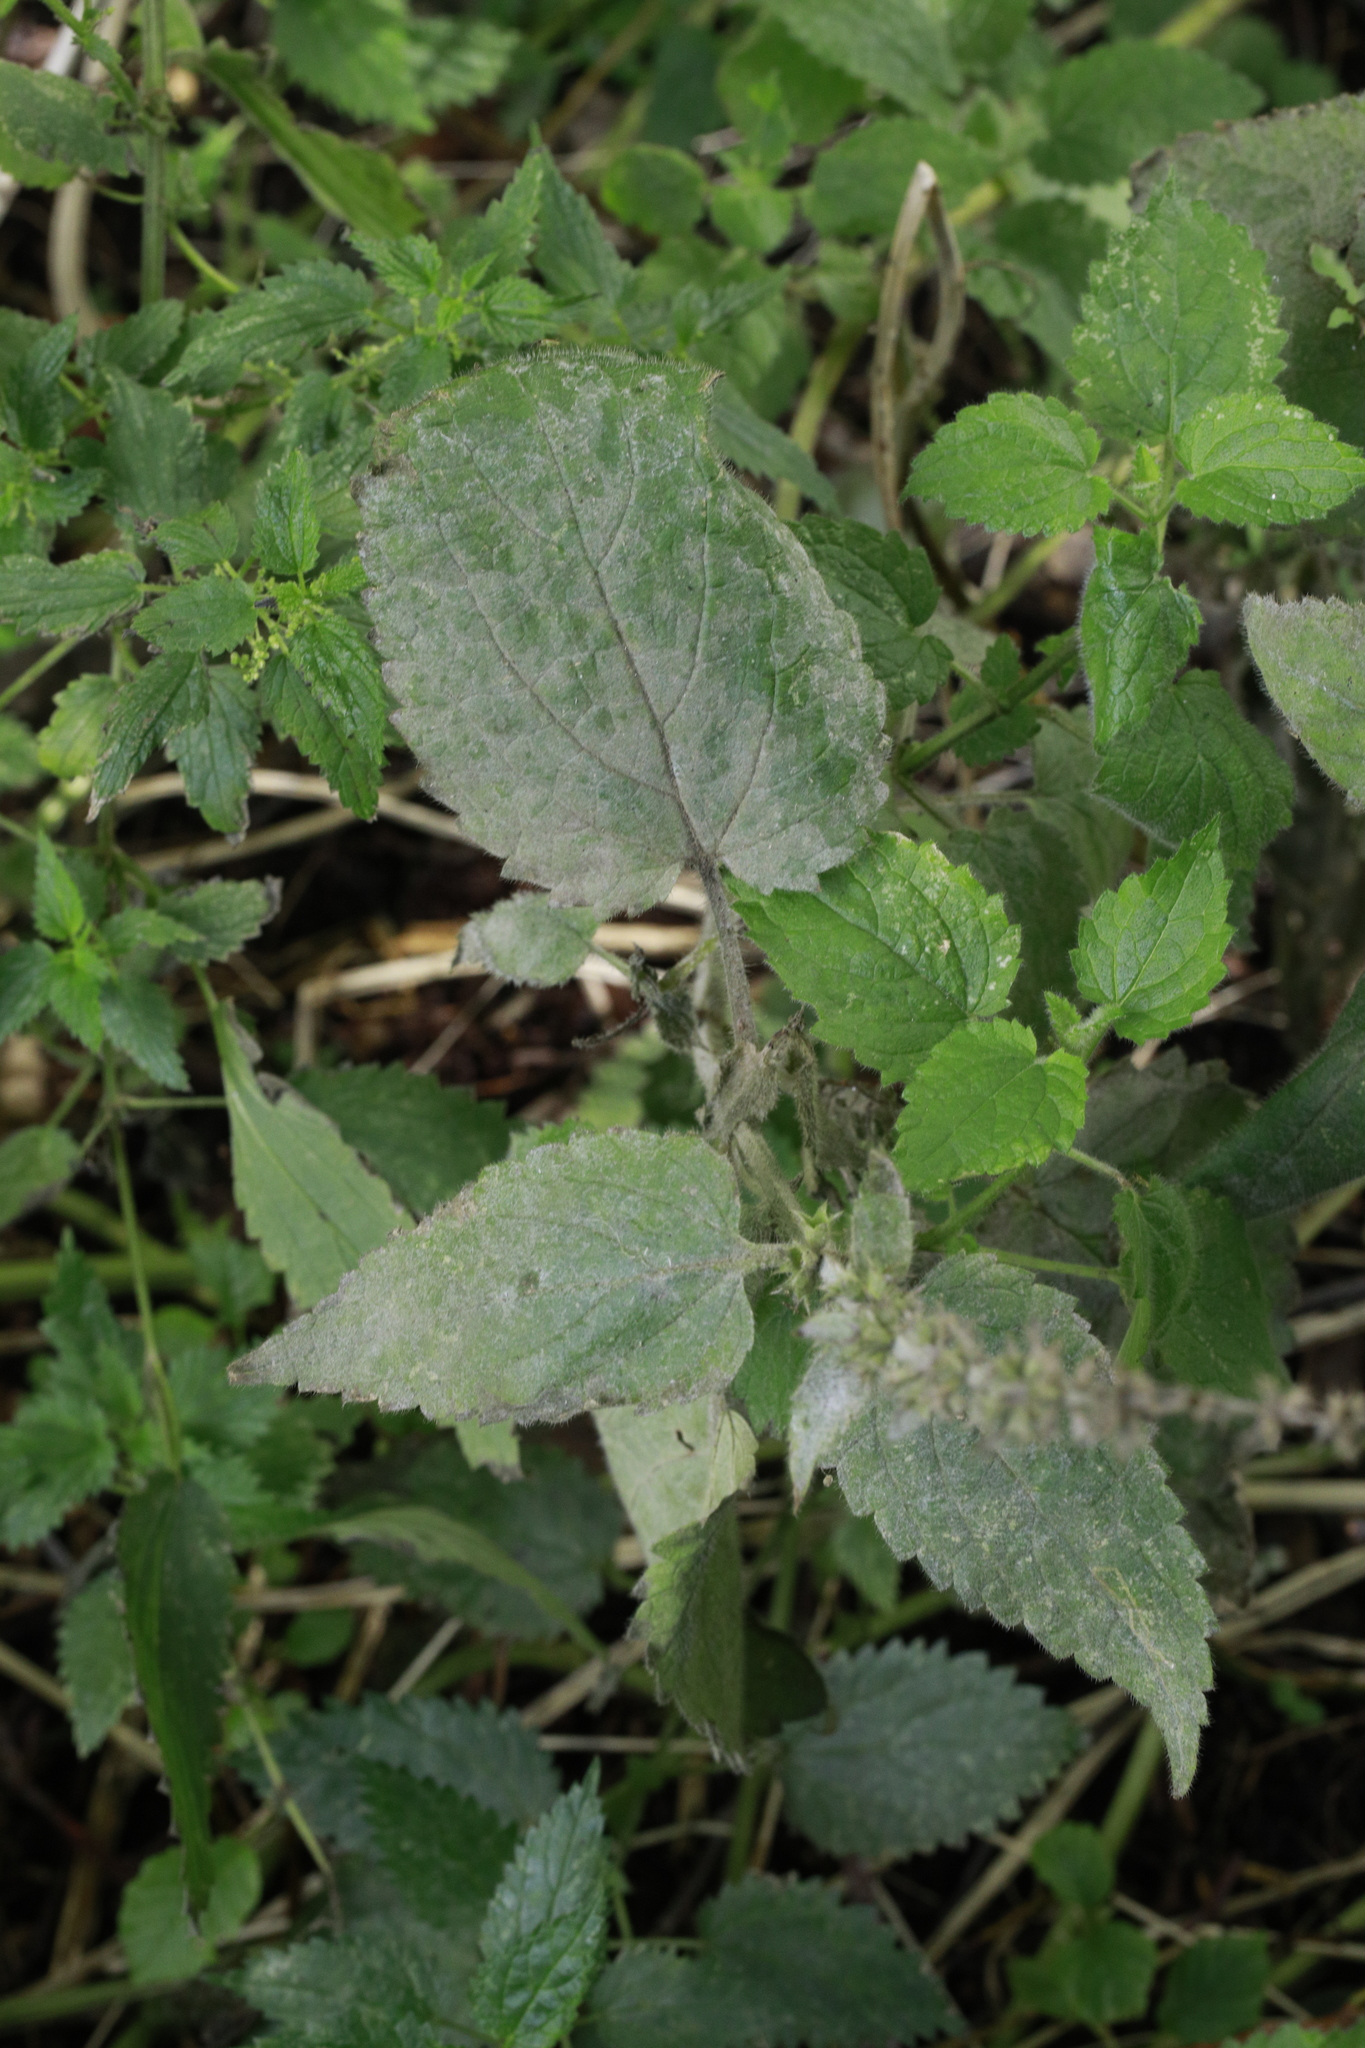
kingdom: Plantae
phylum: Tracheophyta
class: Magnoliopsida
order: Lamiales
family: Lamiaceae
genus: Stachys
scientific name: Stachys sylvatica
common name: Hedge woundwort
